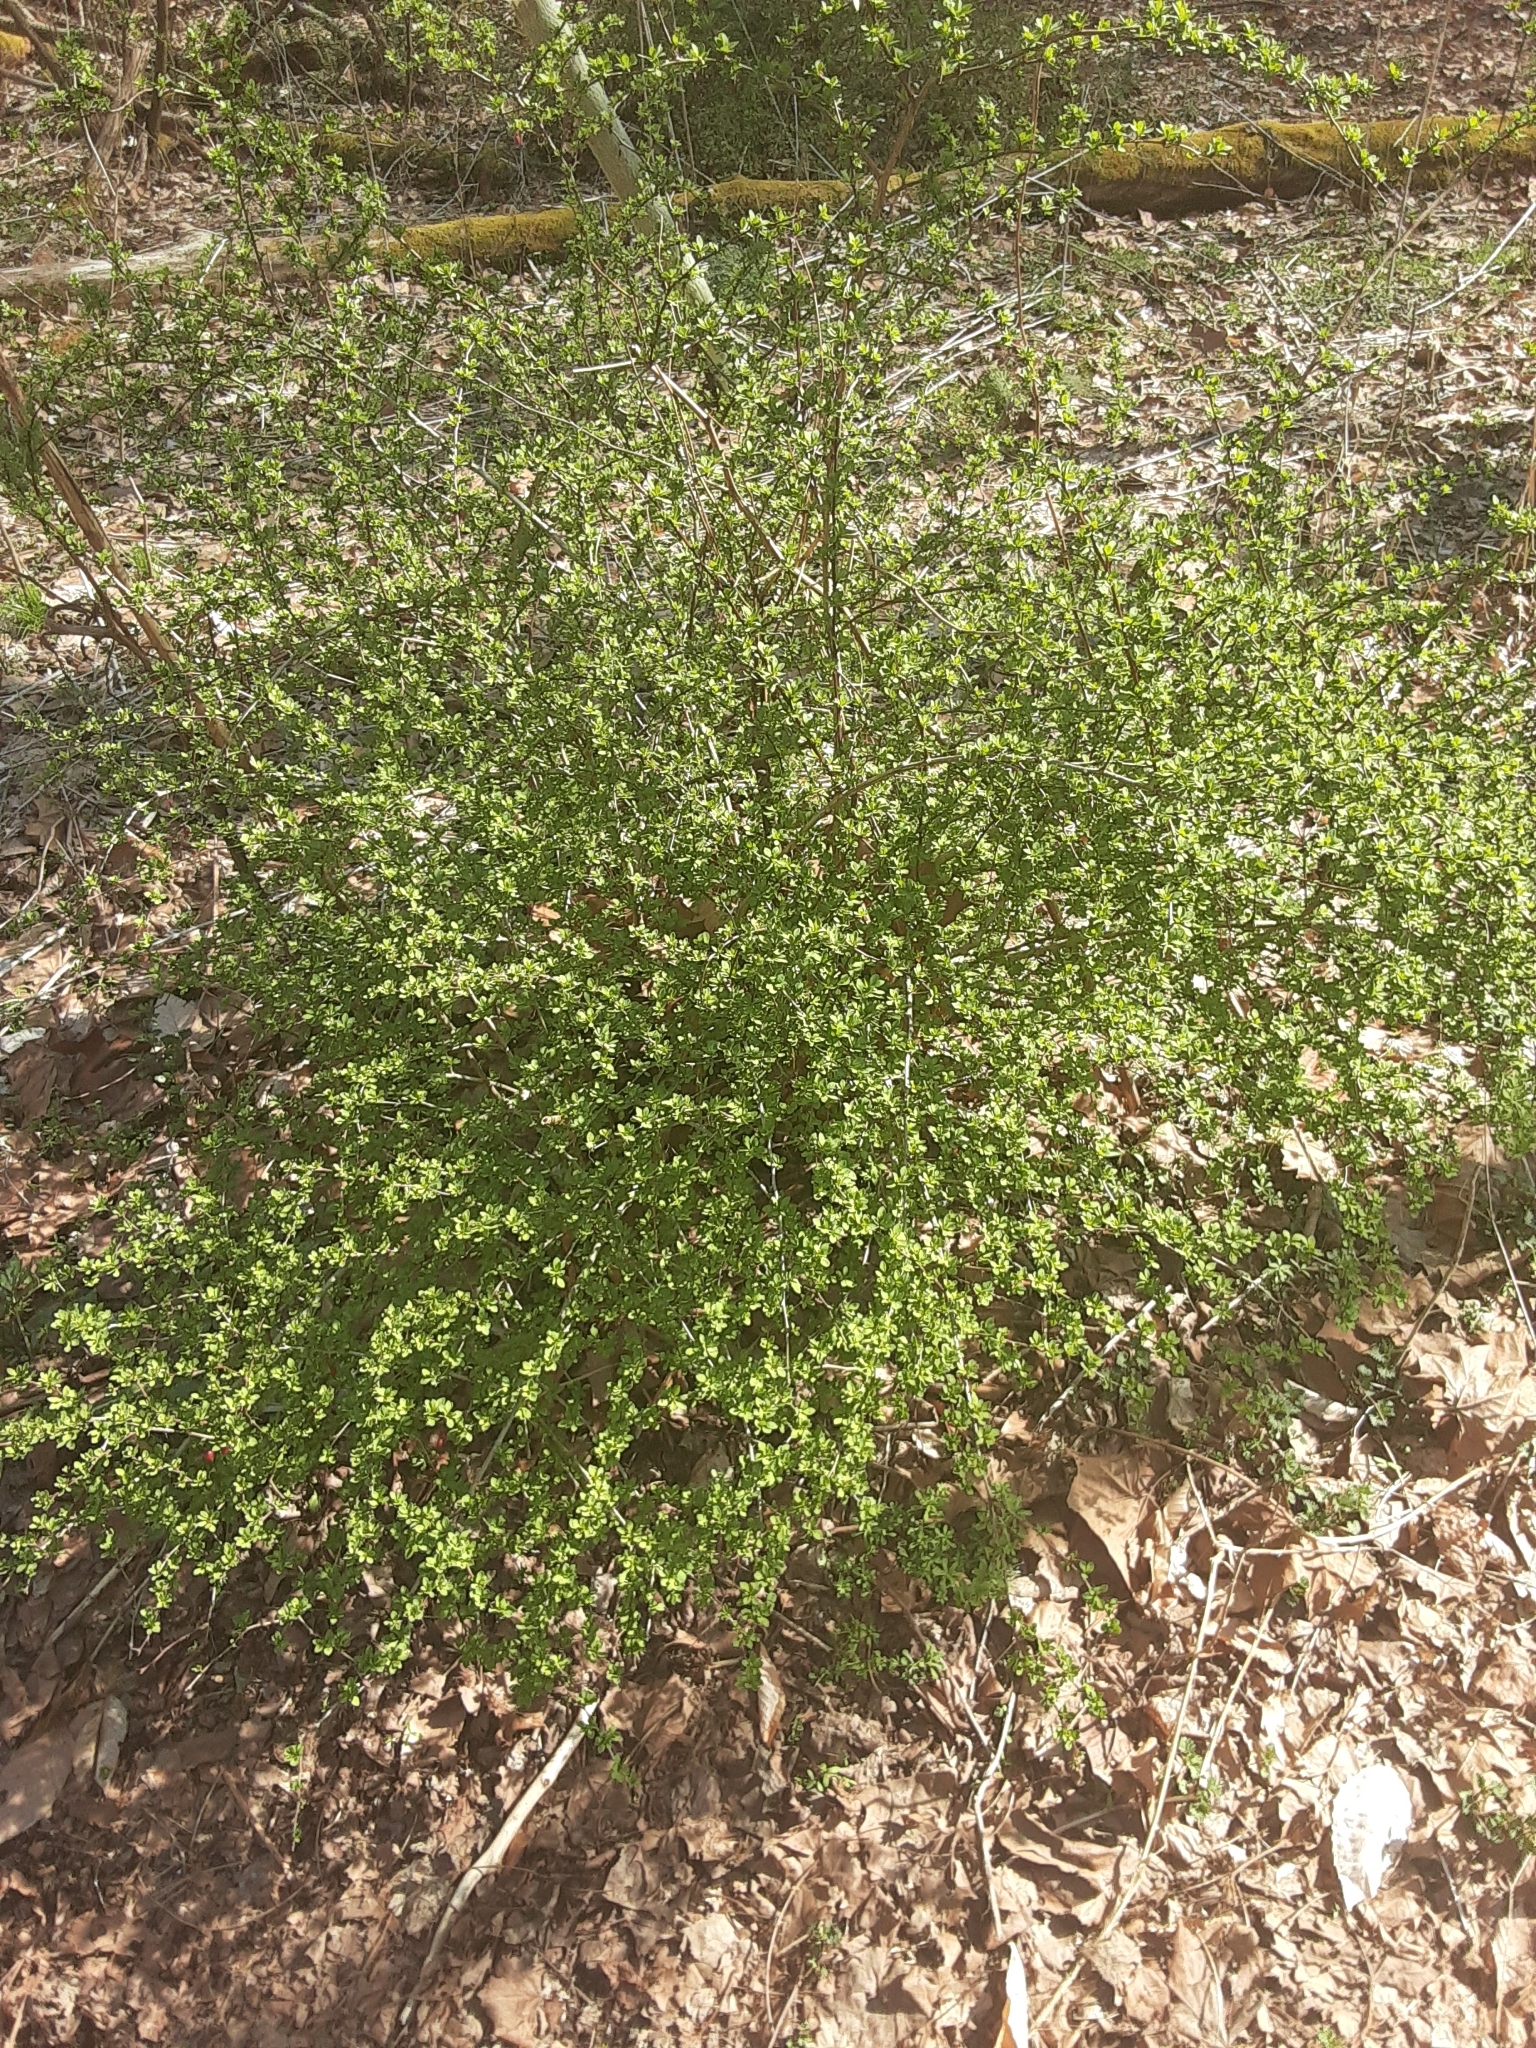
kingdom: Plantae
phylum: Tracheophyta
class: Magnoliopsida
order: Ranunculales
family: Berberidaceae
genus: Berberis
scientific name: Berberis thunbergii
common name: Japanese barberry
